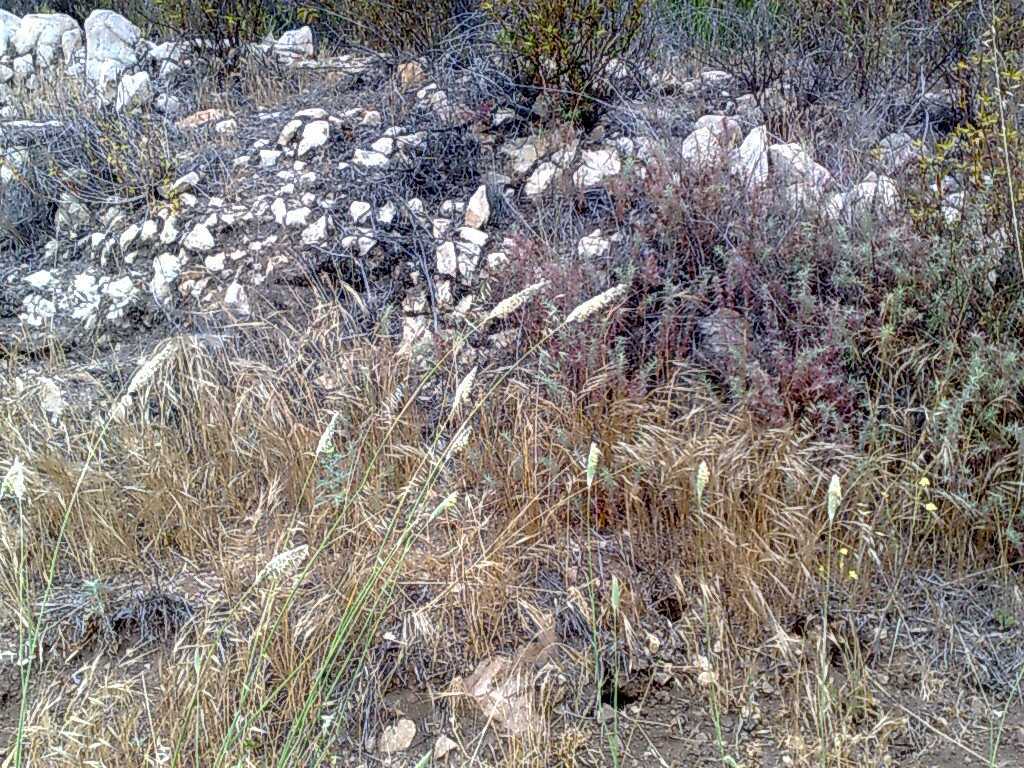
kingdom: Plantae
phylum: Tracheophyta
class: Liliopsida
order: Poales
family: Poaceae
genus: Bromus
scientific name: Bromus diandrus
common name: Ripgut brome
